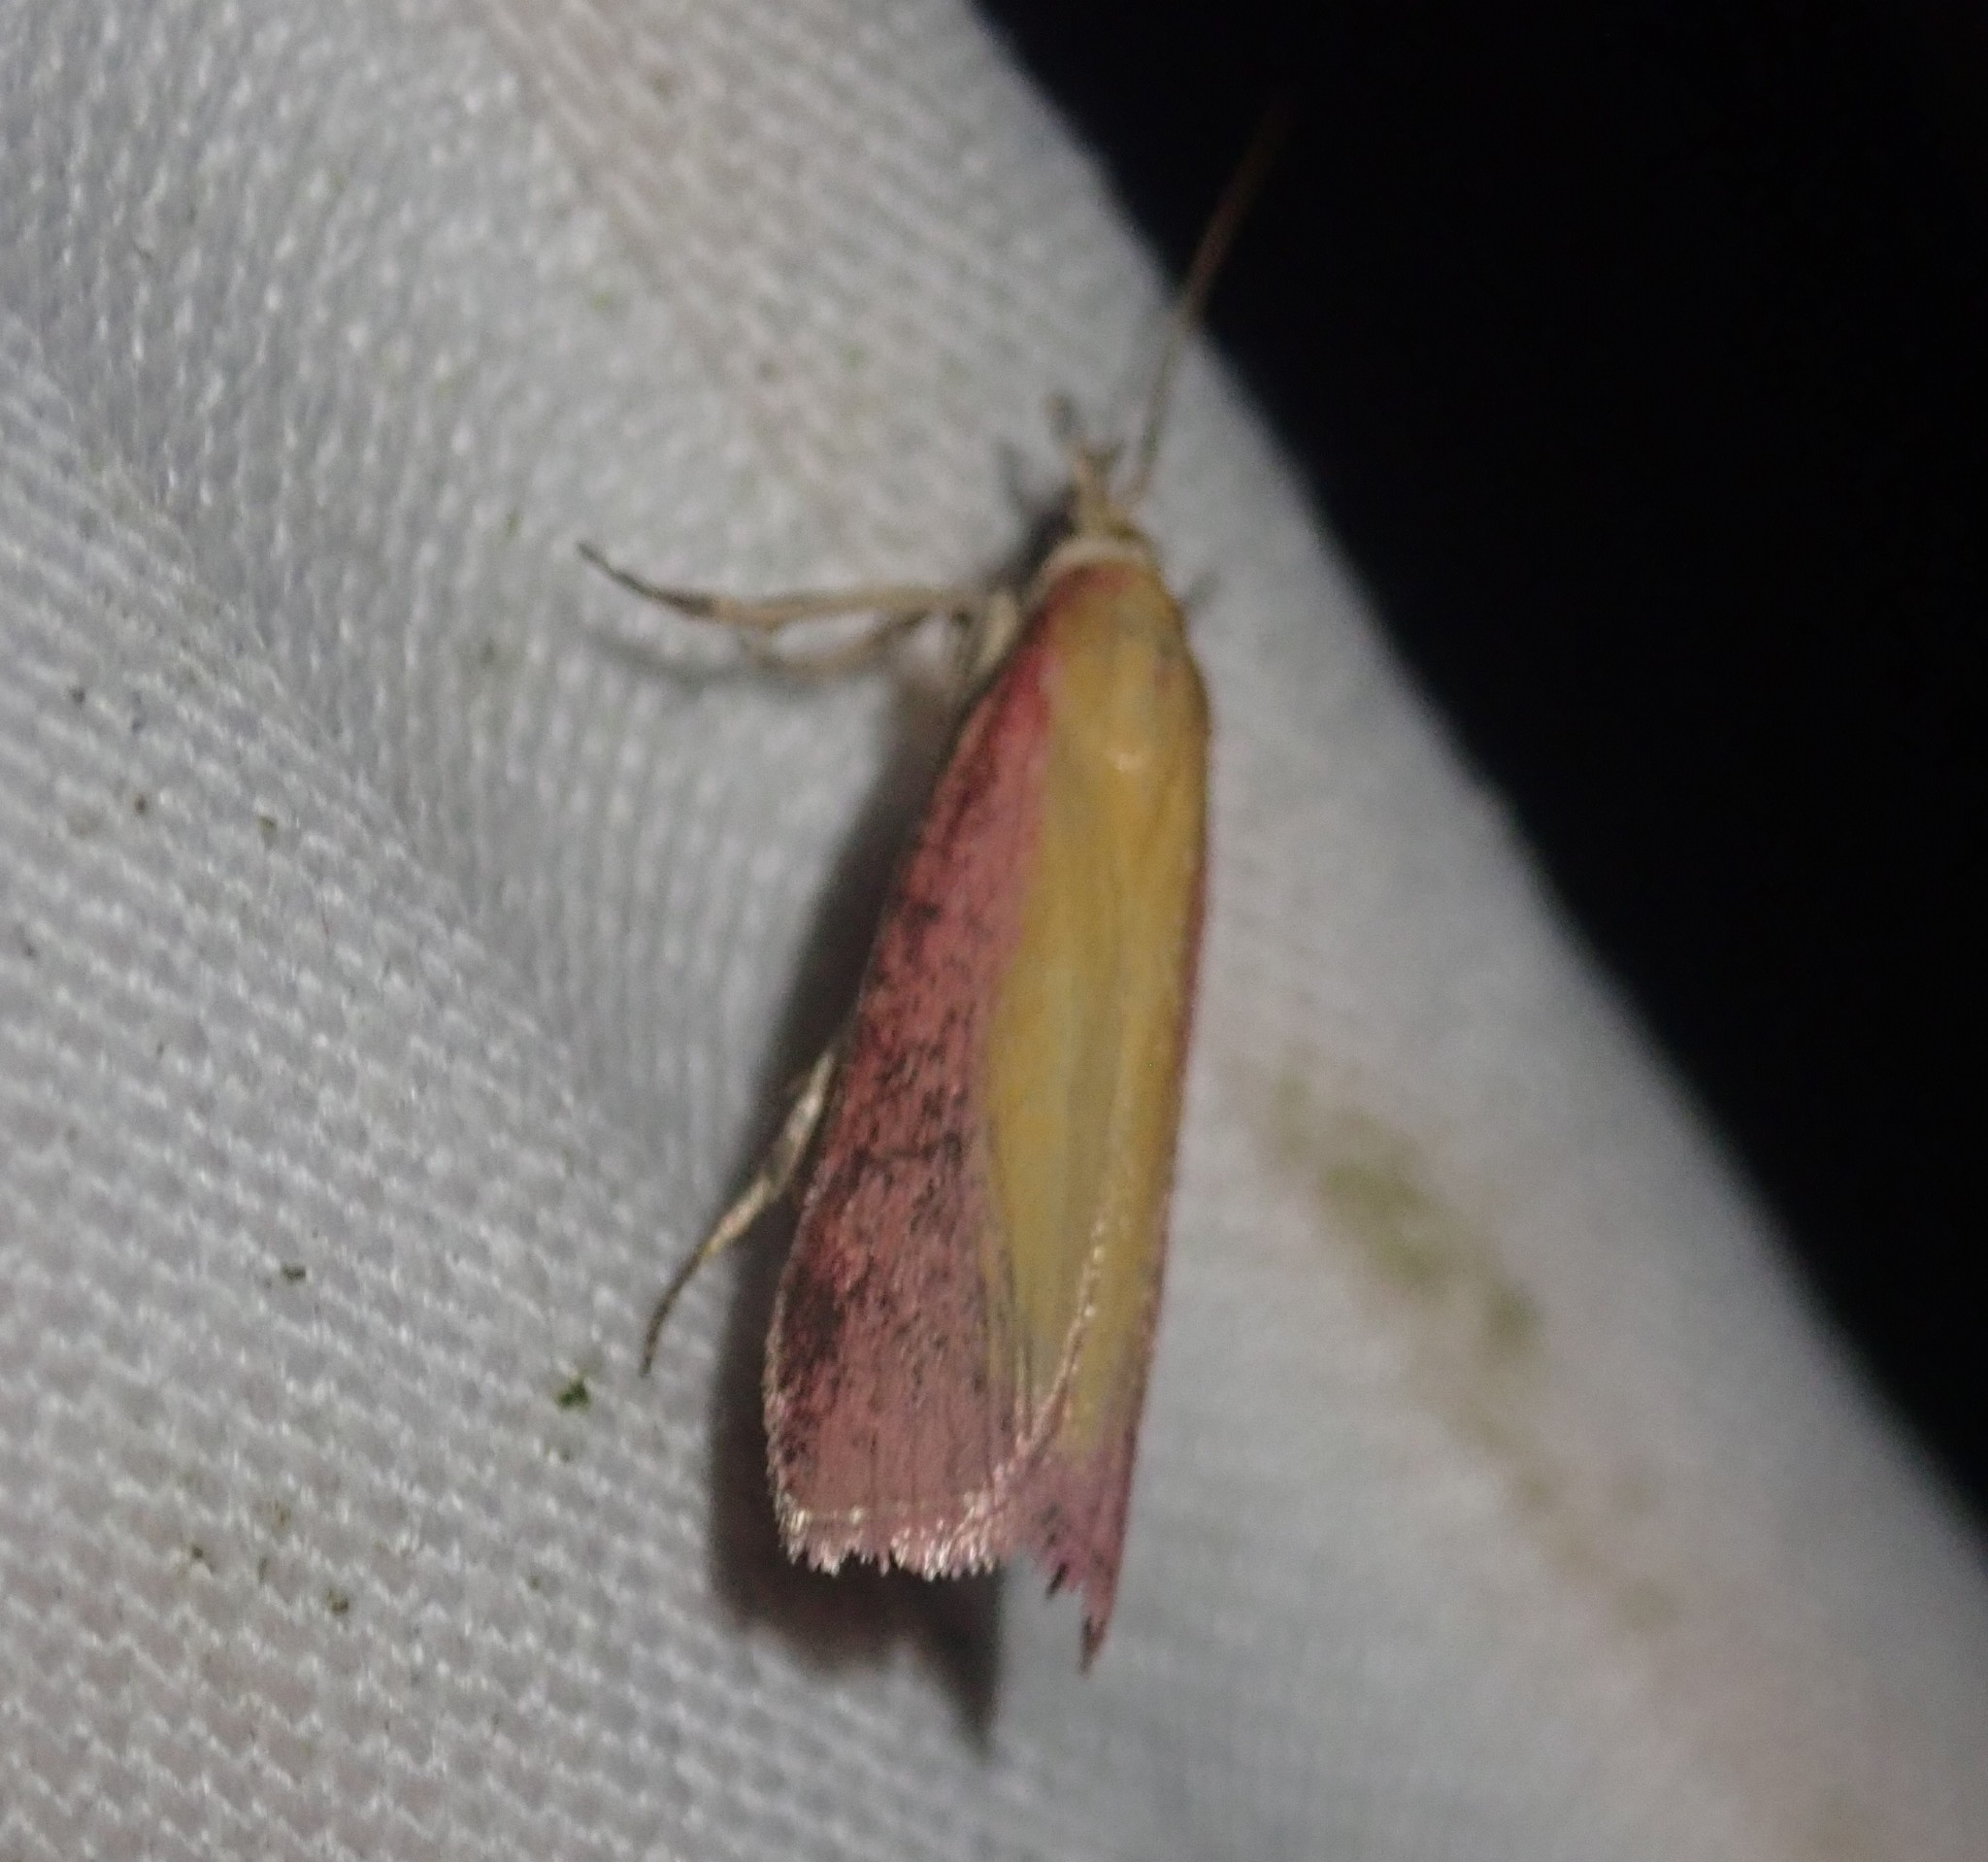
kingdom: Animalia
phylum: Arthropoda
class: Insecta
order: Lepidoptera
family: Pyralidae
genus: Oncocera
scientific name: Oncocera semirubella
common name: Rosy-striped knot-horn
